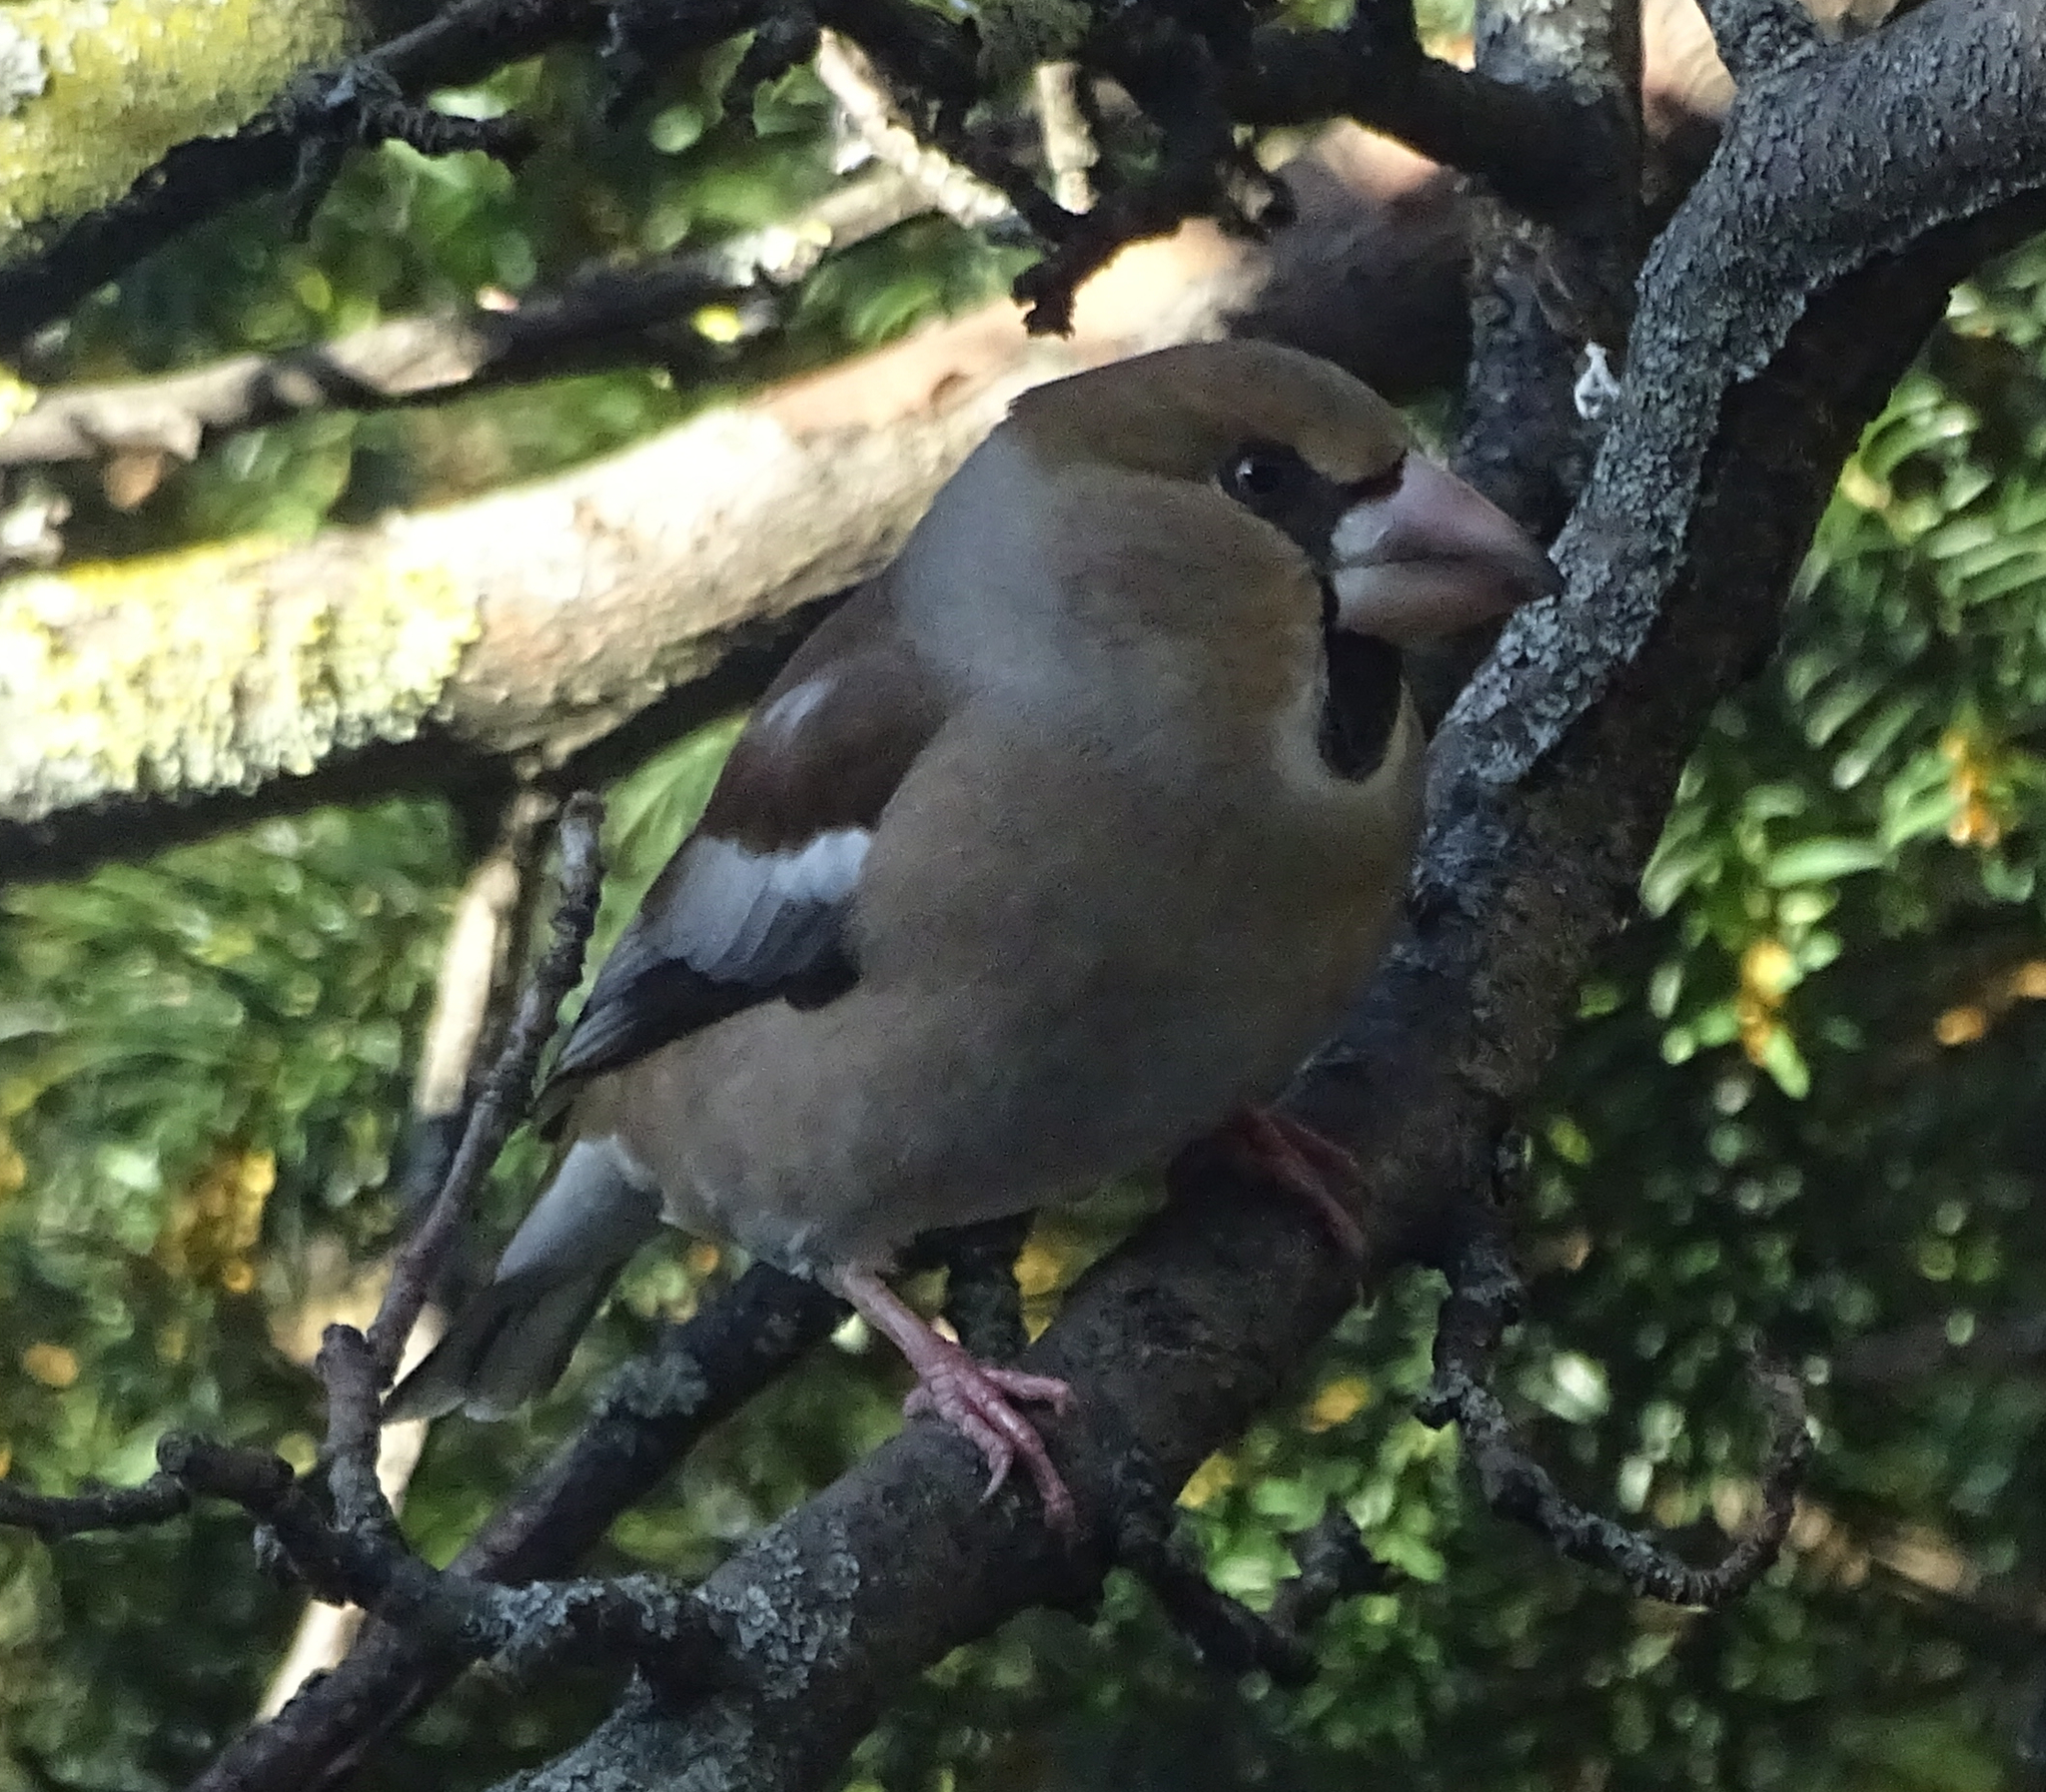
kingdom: Animalia
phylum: Chordata
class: Aves
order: Passeriformes
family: Fringillidae
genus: Coccothraustes
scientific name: Coccothraustes coccothraustes
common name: Hawfinch
